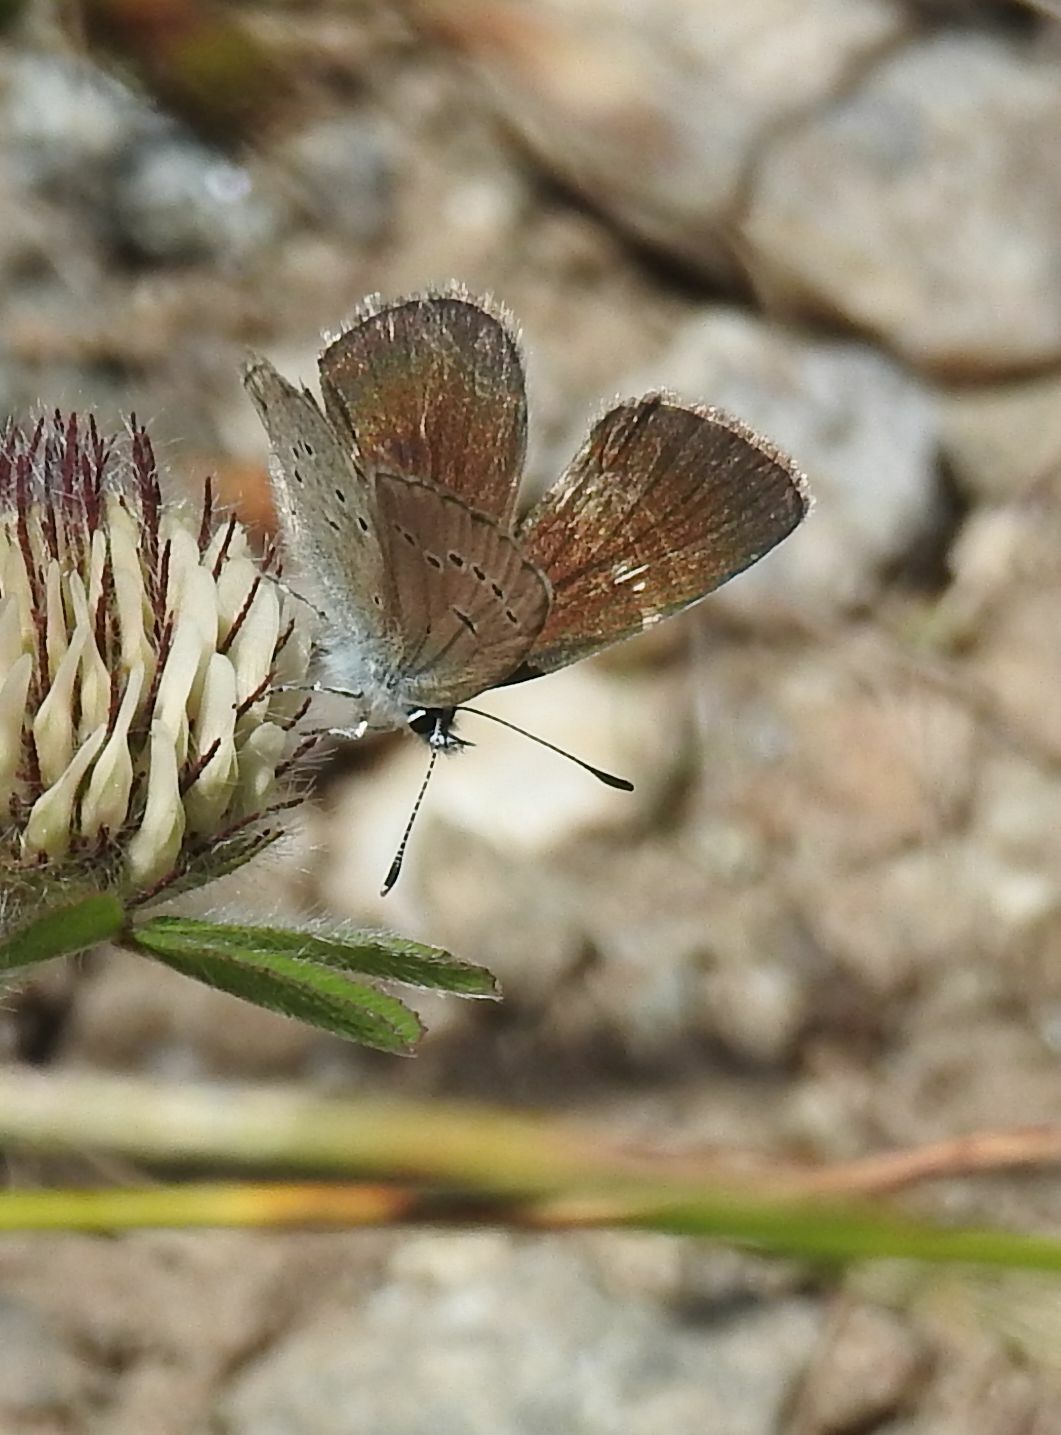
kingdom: Animalia
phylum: Arthropoda
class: Insecta
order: Lepidoptera
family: Lycaenidae
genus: Cyaniris
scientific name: Cyaniris semiargus
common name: Mazarine blue
